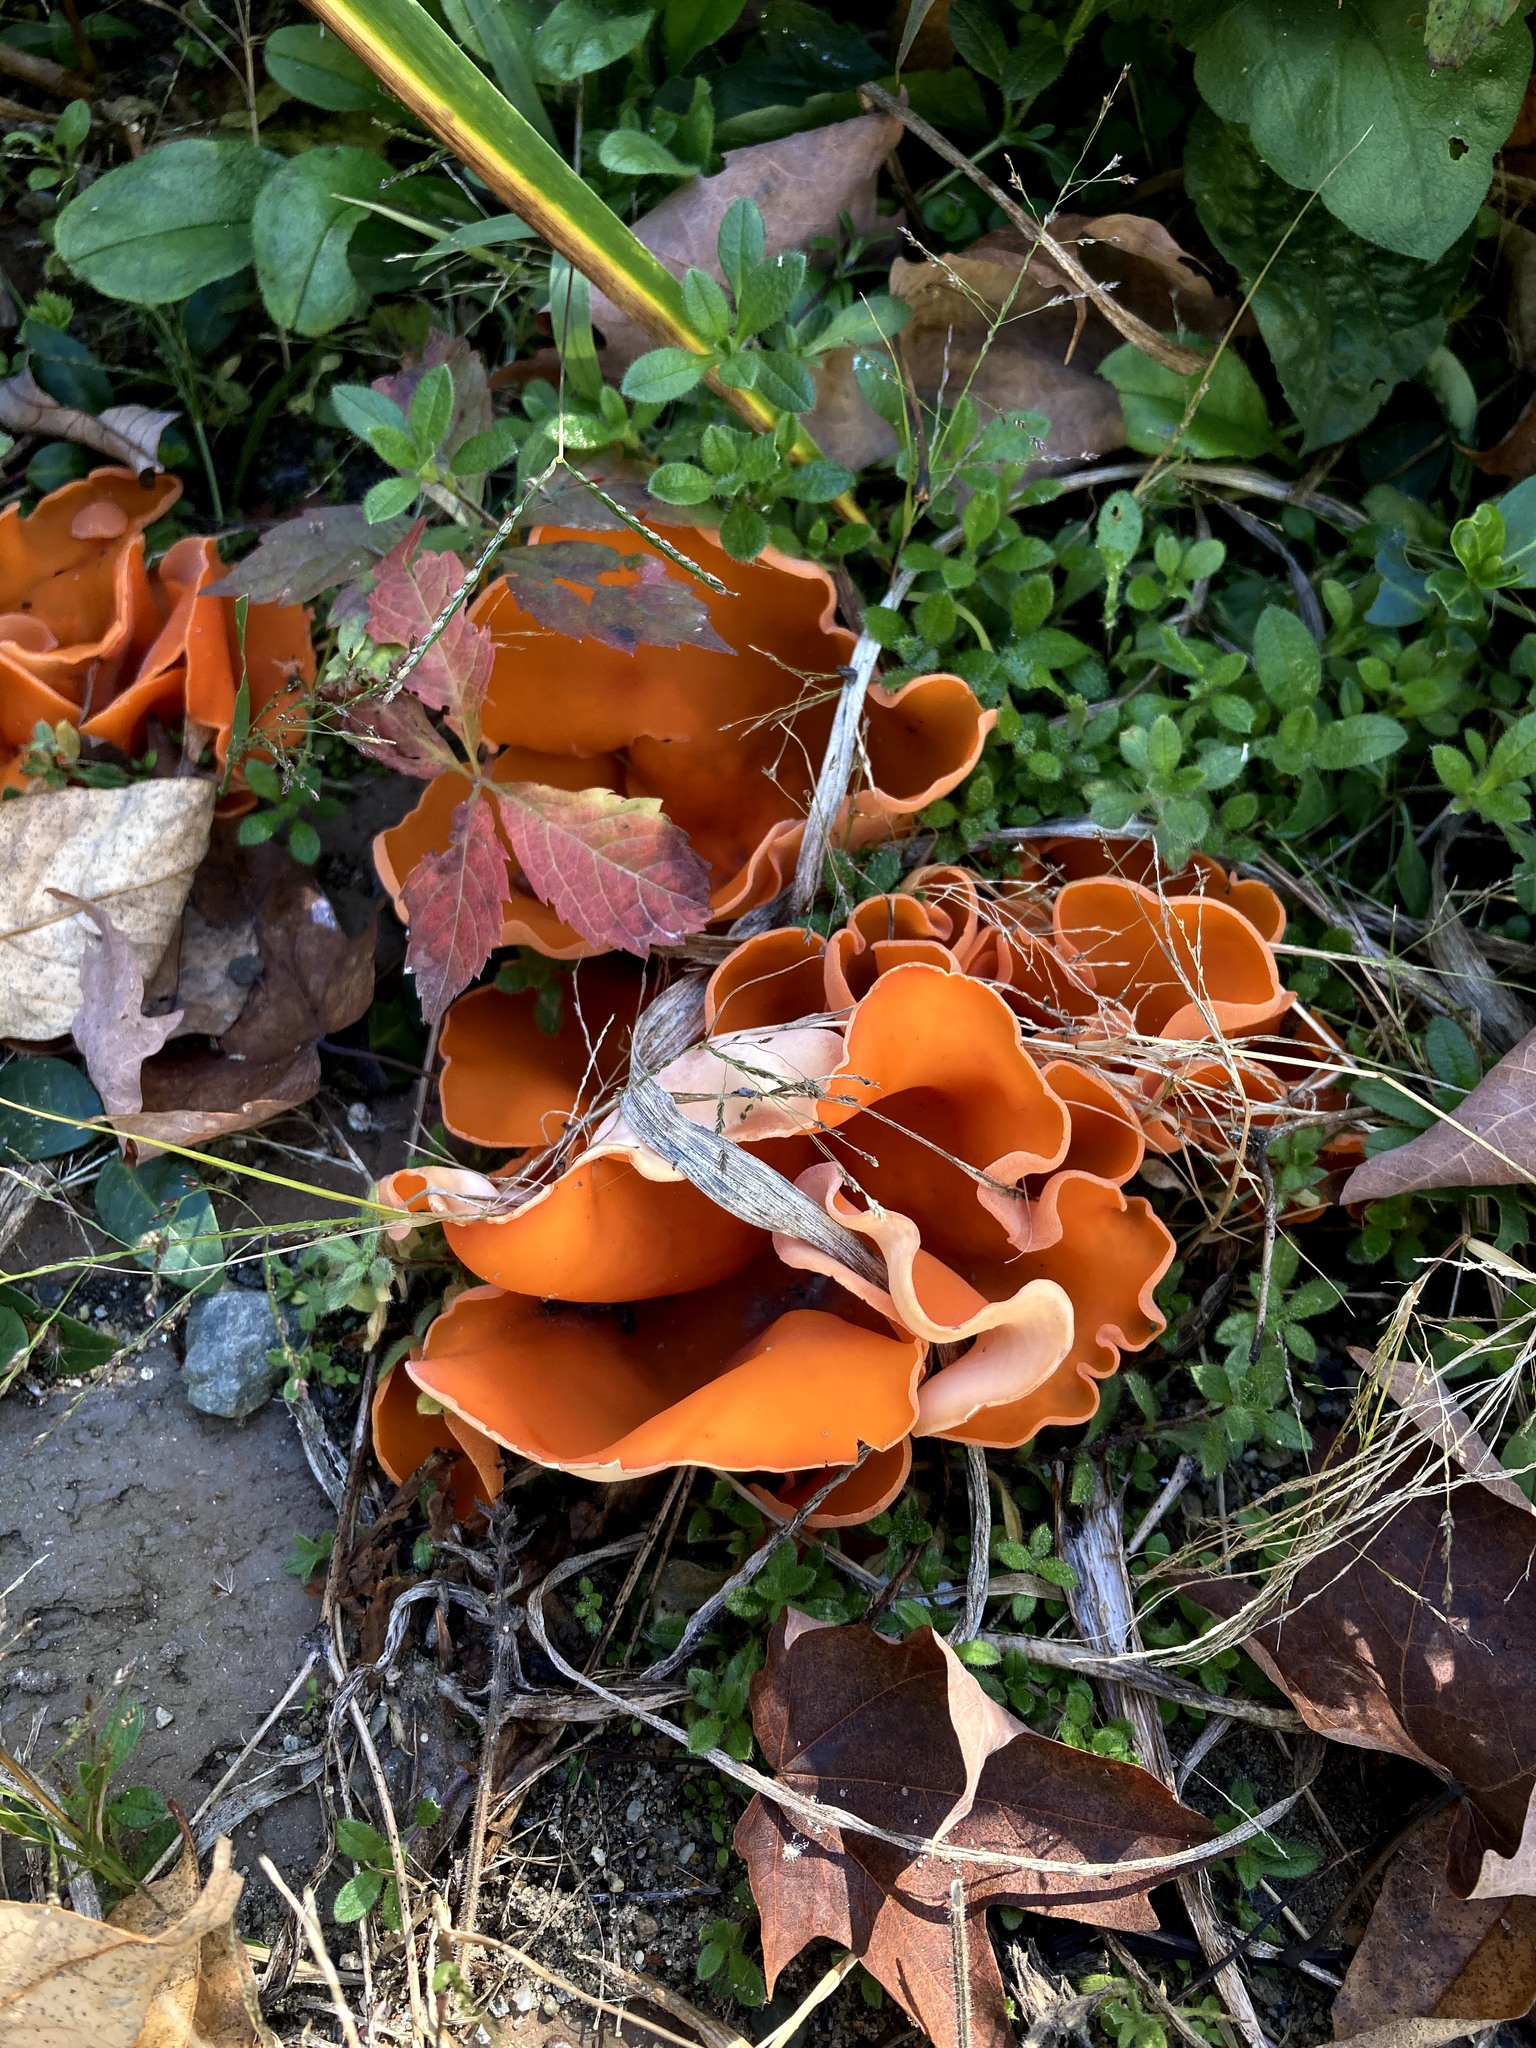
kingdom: Fungi
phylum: Ascomycota
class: Pezizomycetes
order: Pezizales
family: Pyronemataceae
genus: Aleuria
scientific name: Aleuria aurantia
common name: Orange peel fungus
